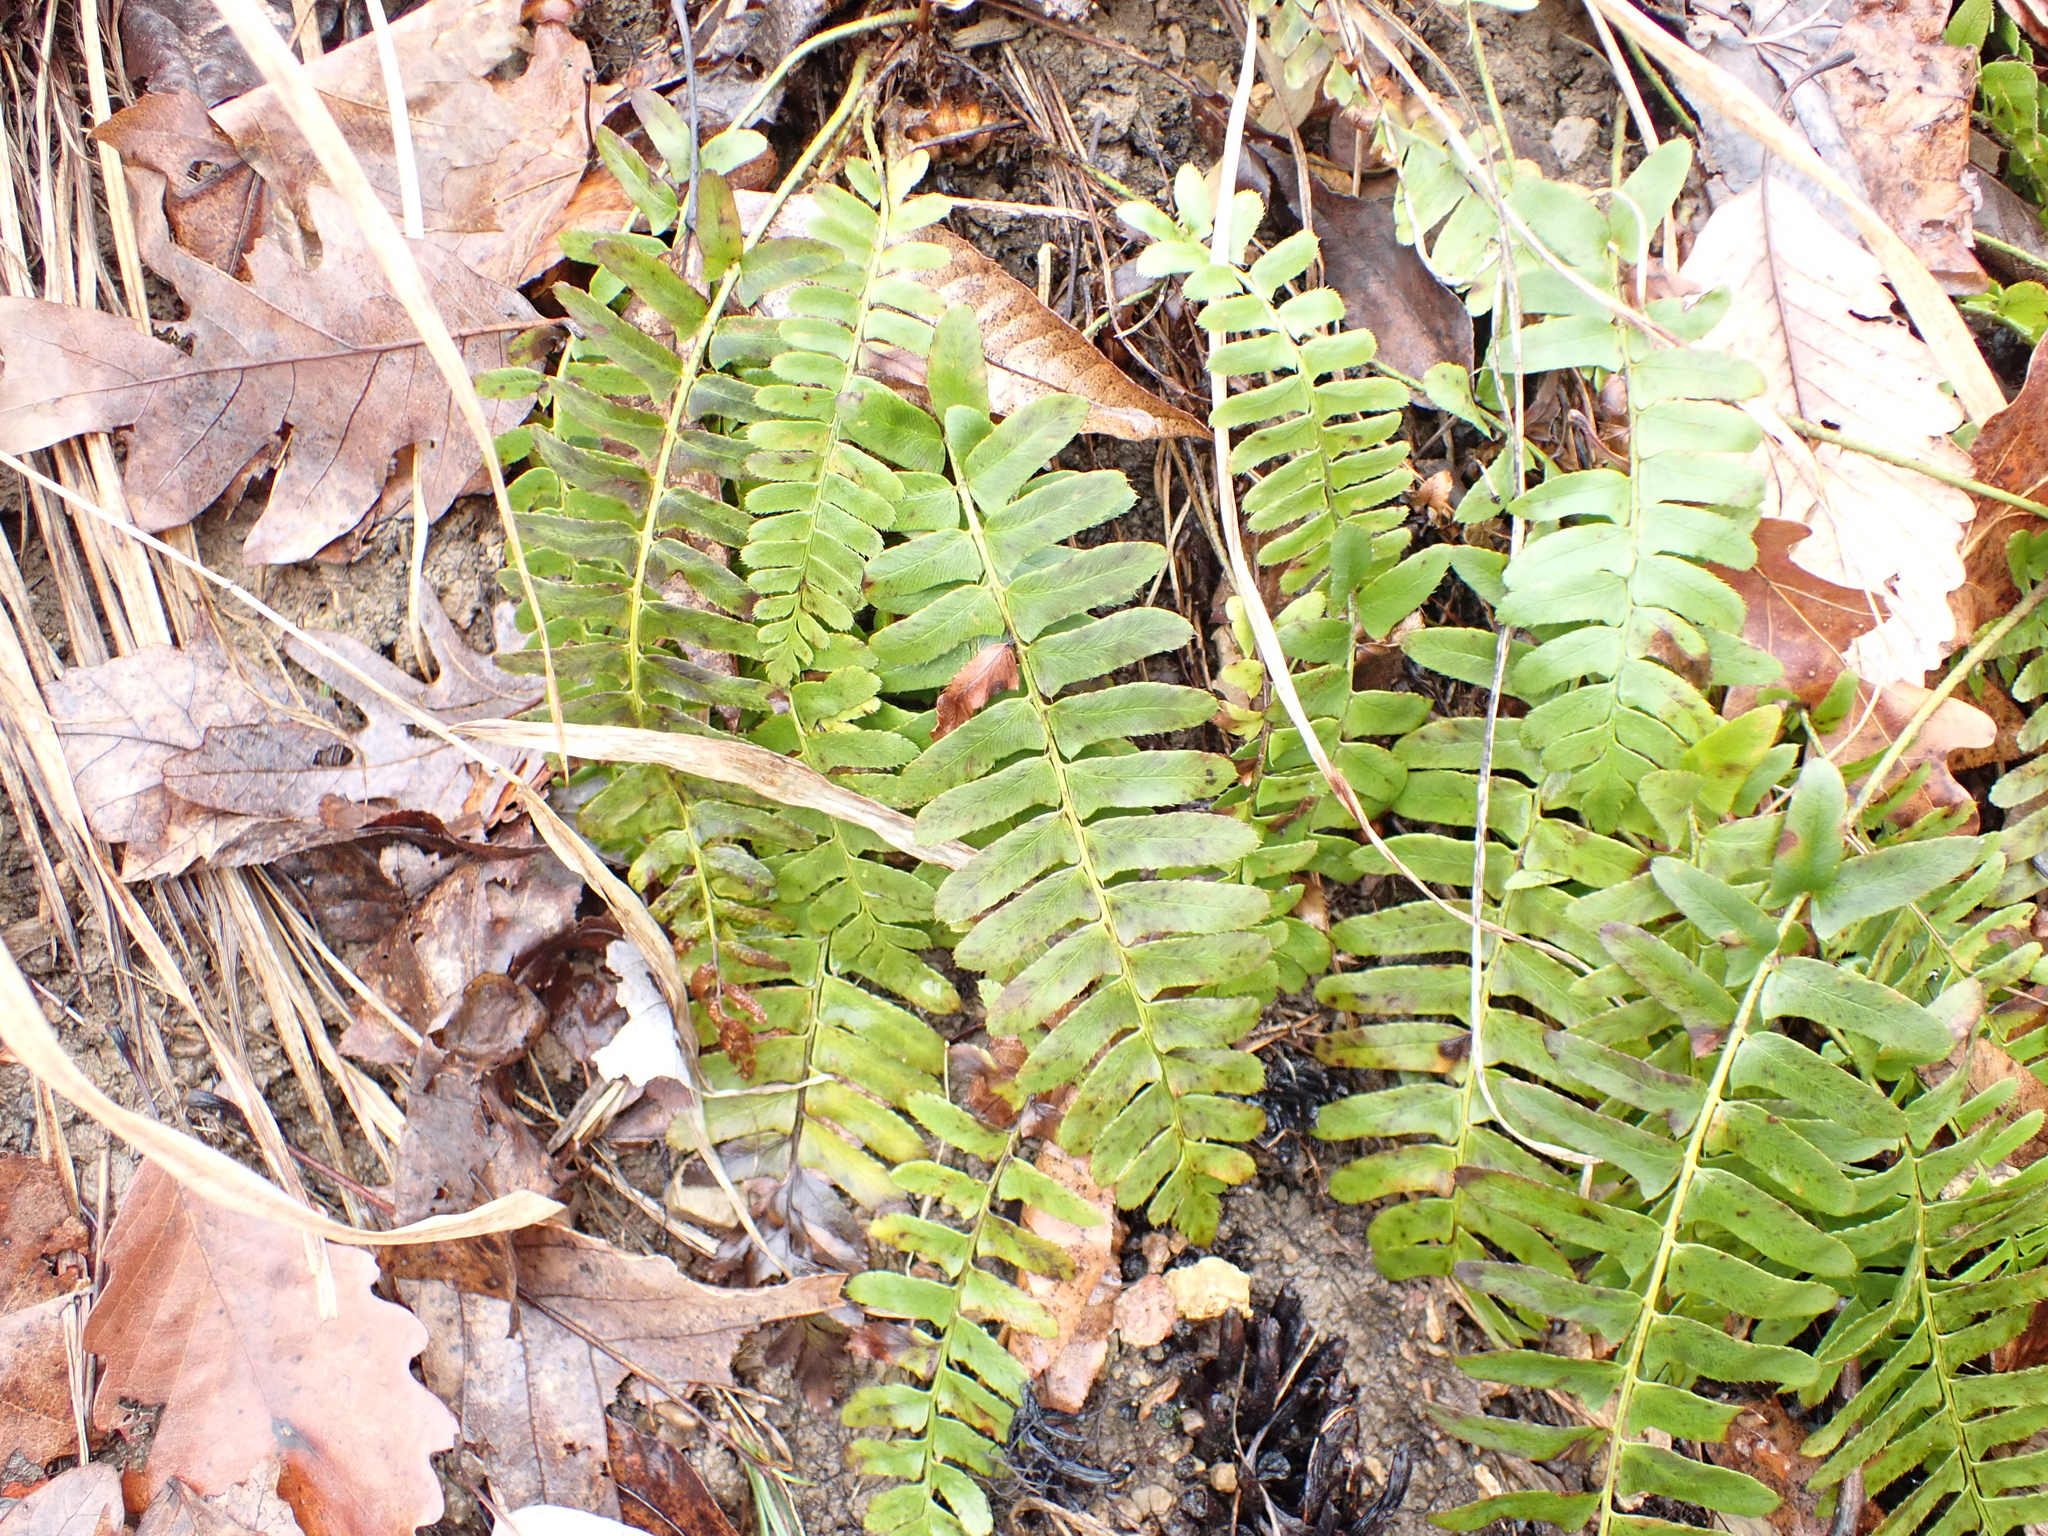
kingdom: Plantae
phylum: Tracheophyta
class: Polypodiopsida
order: Polypodiales
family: Dryopteridaceae
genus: Polystichum
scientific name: Polystichum acrostichoides
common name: Christmas fern
